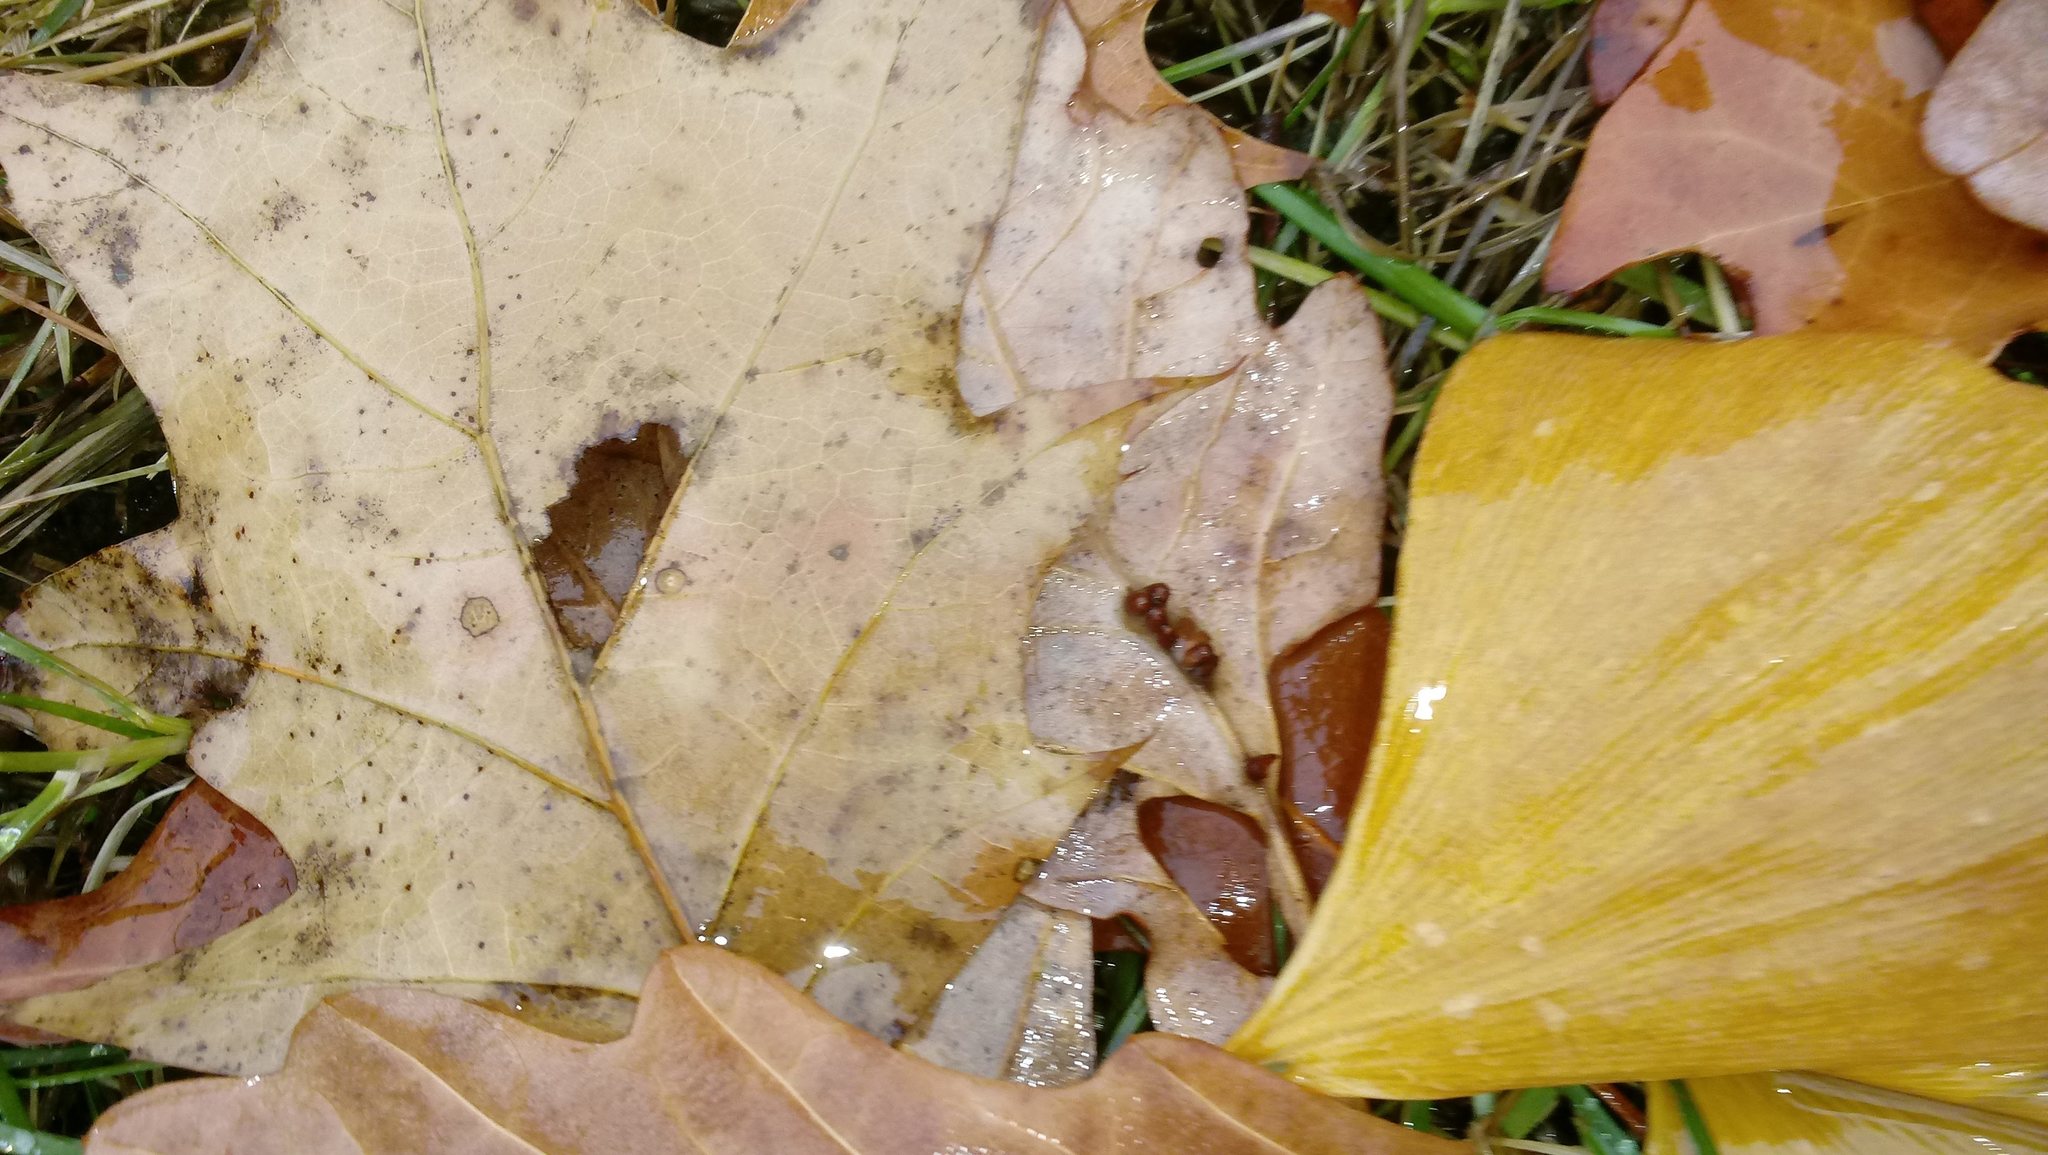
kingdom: Animalia
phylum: Arthropoda
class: Insecta
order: Hymenoptera
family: Cynipidae
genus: Andricus
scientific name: Andricus Druon ignotum
